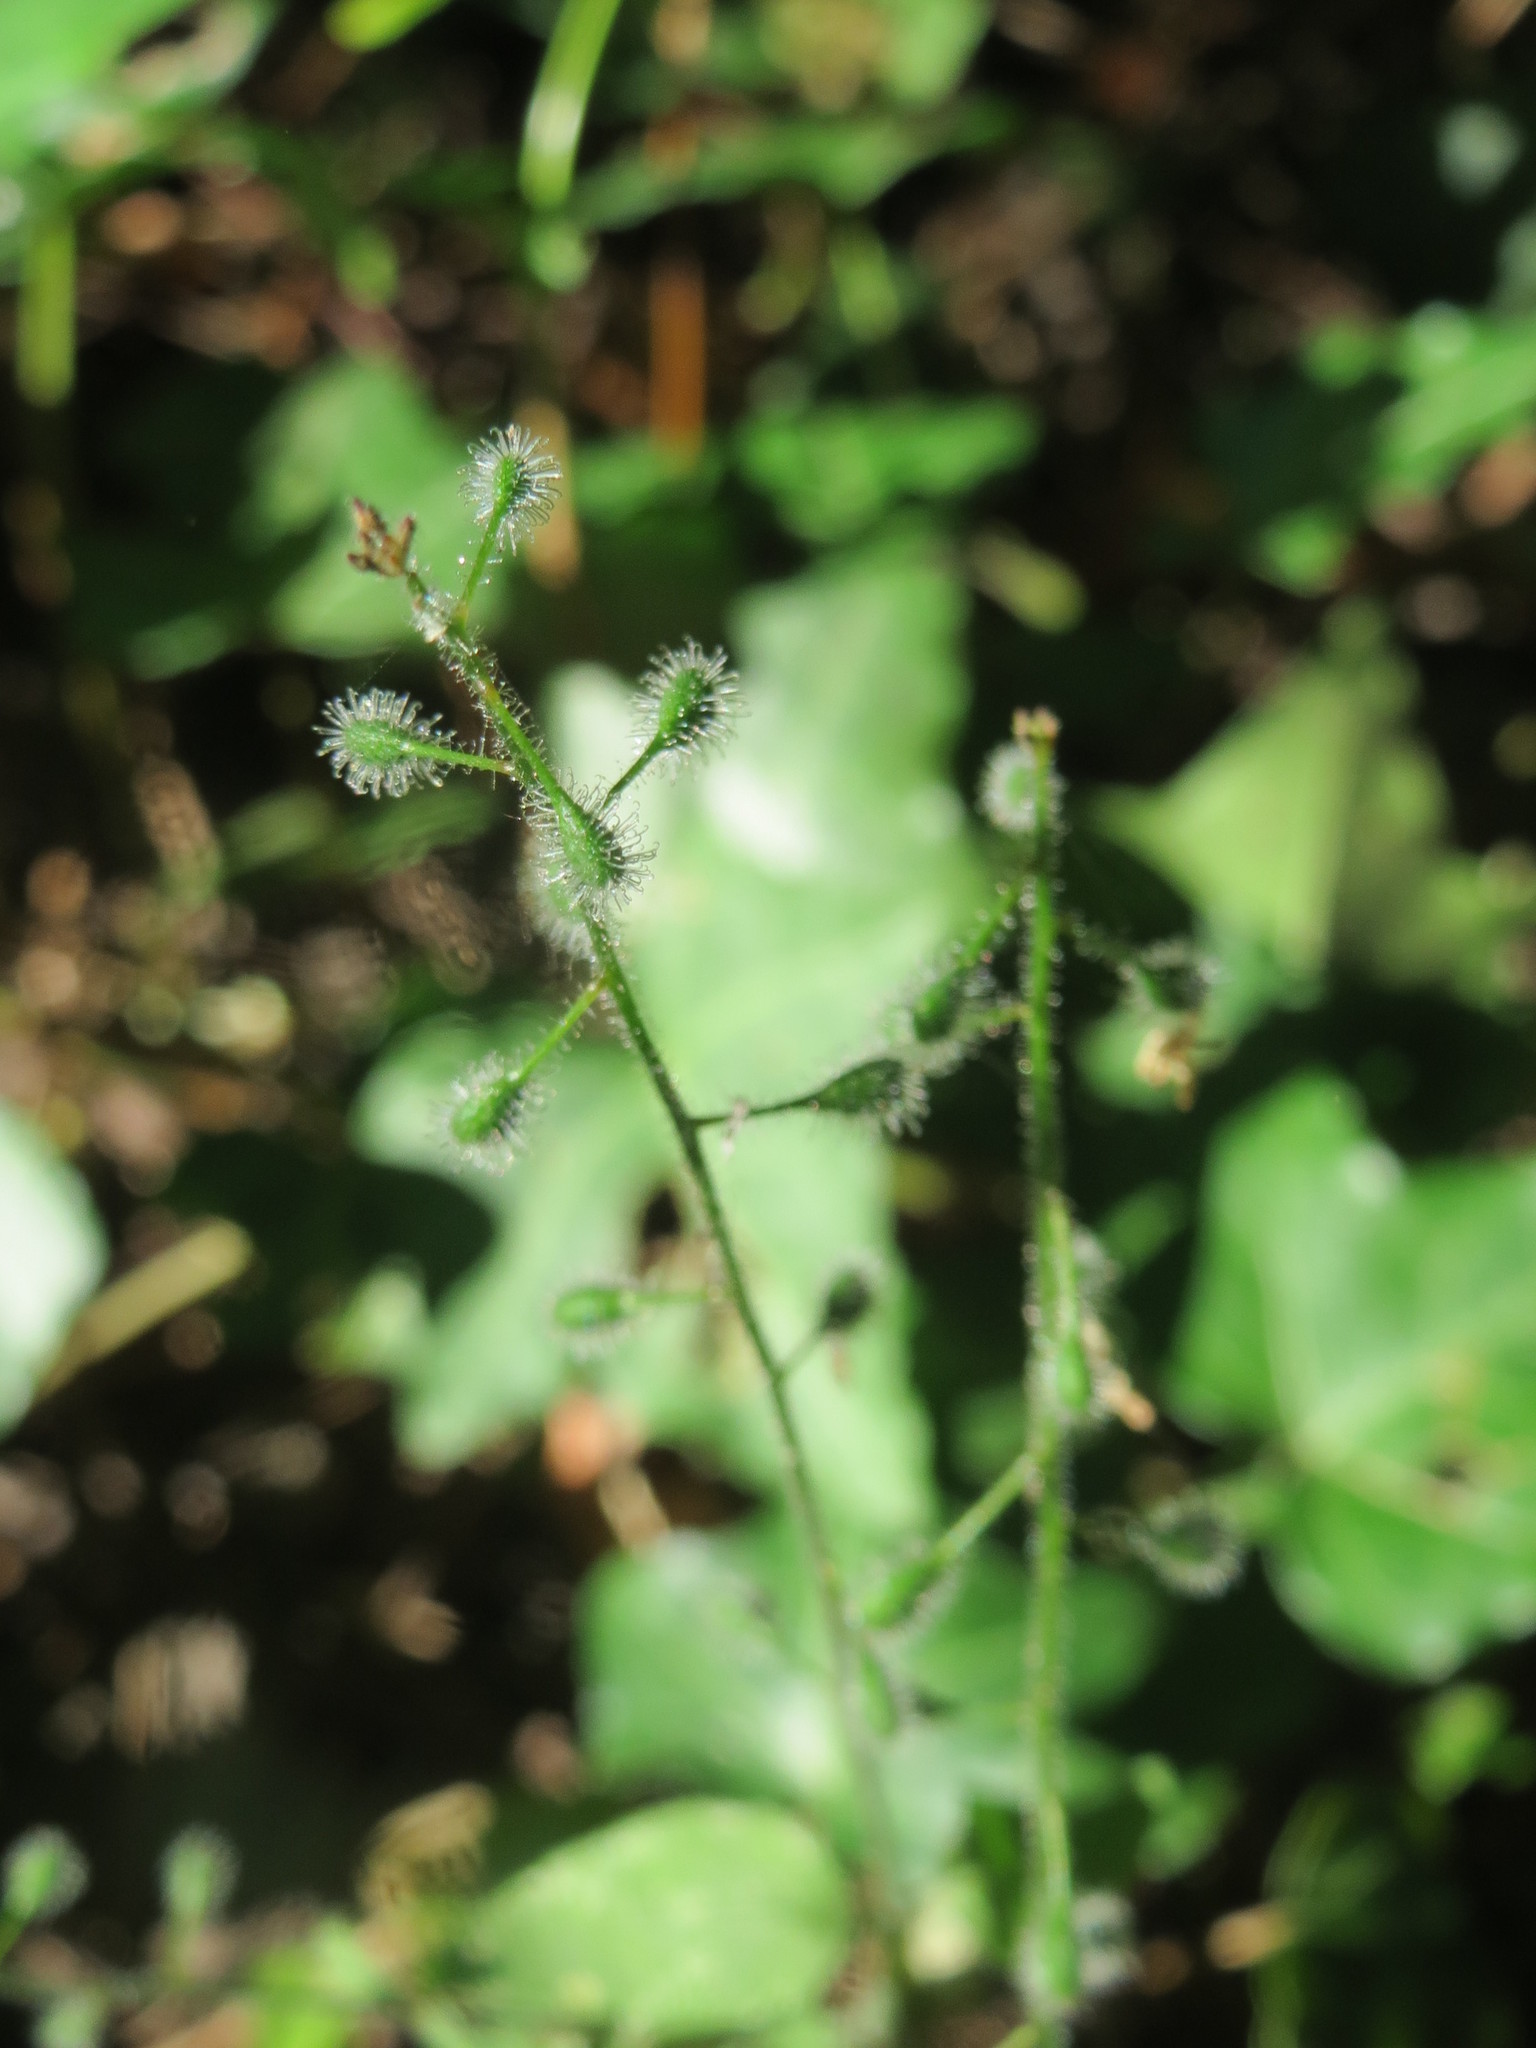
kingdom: Plantae
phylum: Tracheophyta
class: Magnoliopsida
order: Myrtales
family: Onagraceae
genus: Circaea
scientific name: Circaea lutetiana
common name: Enchanter's-nightshade
